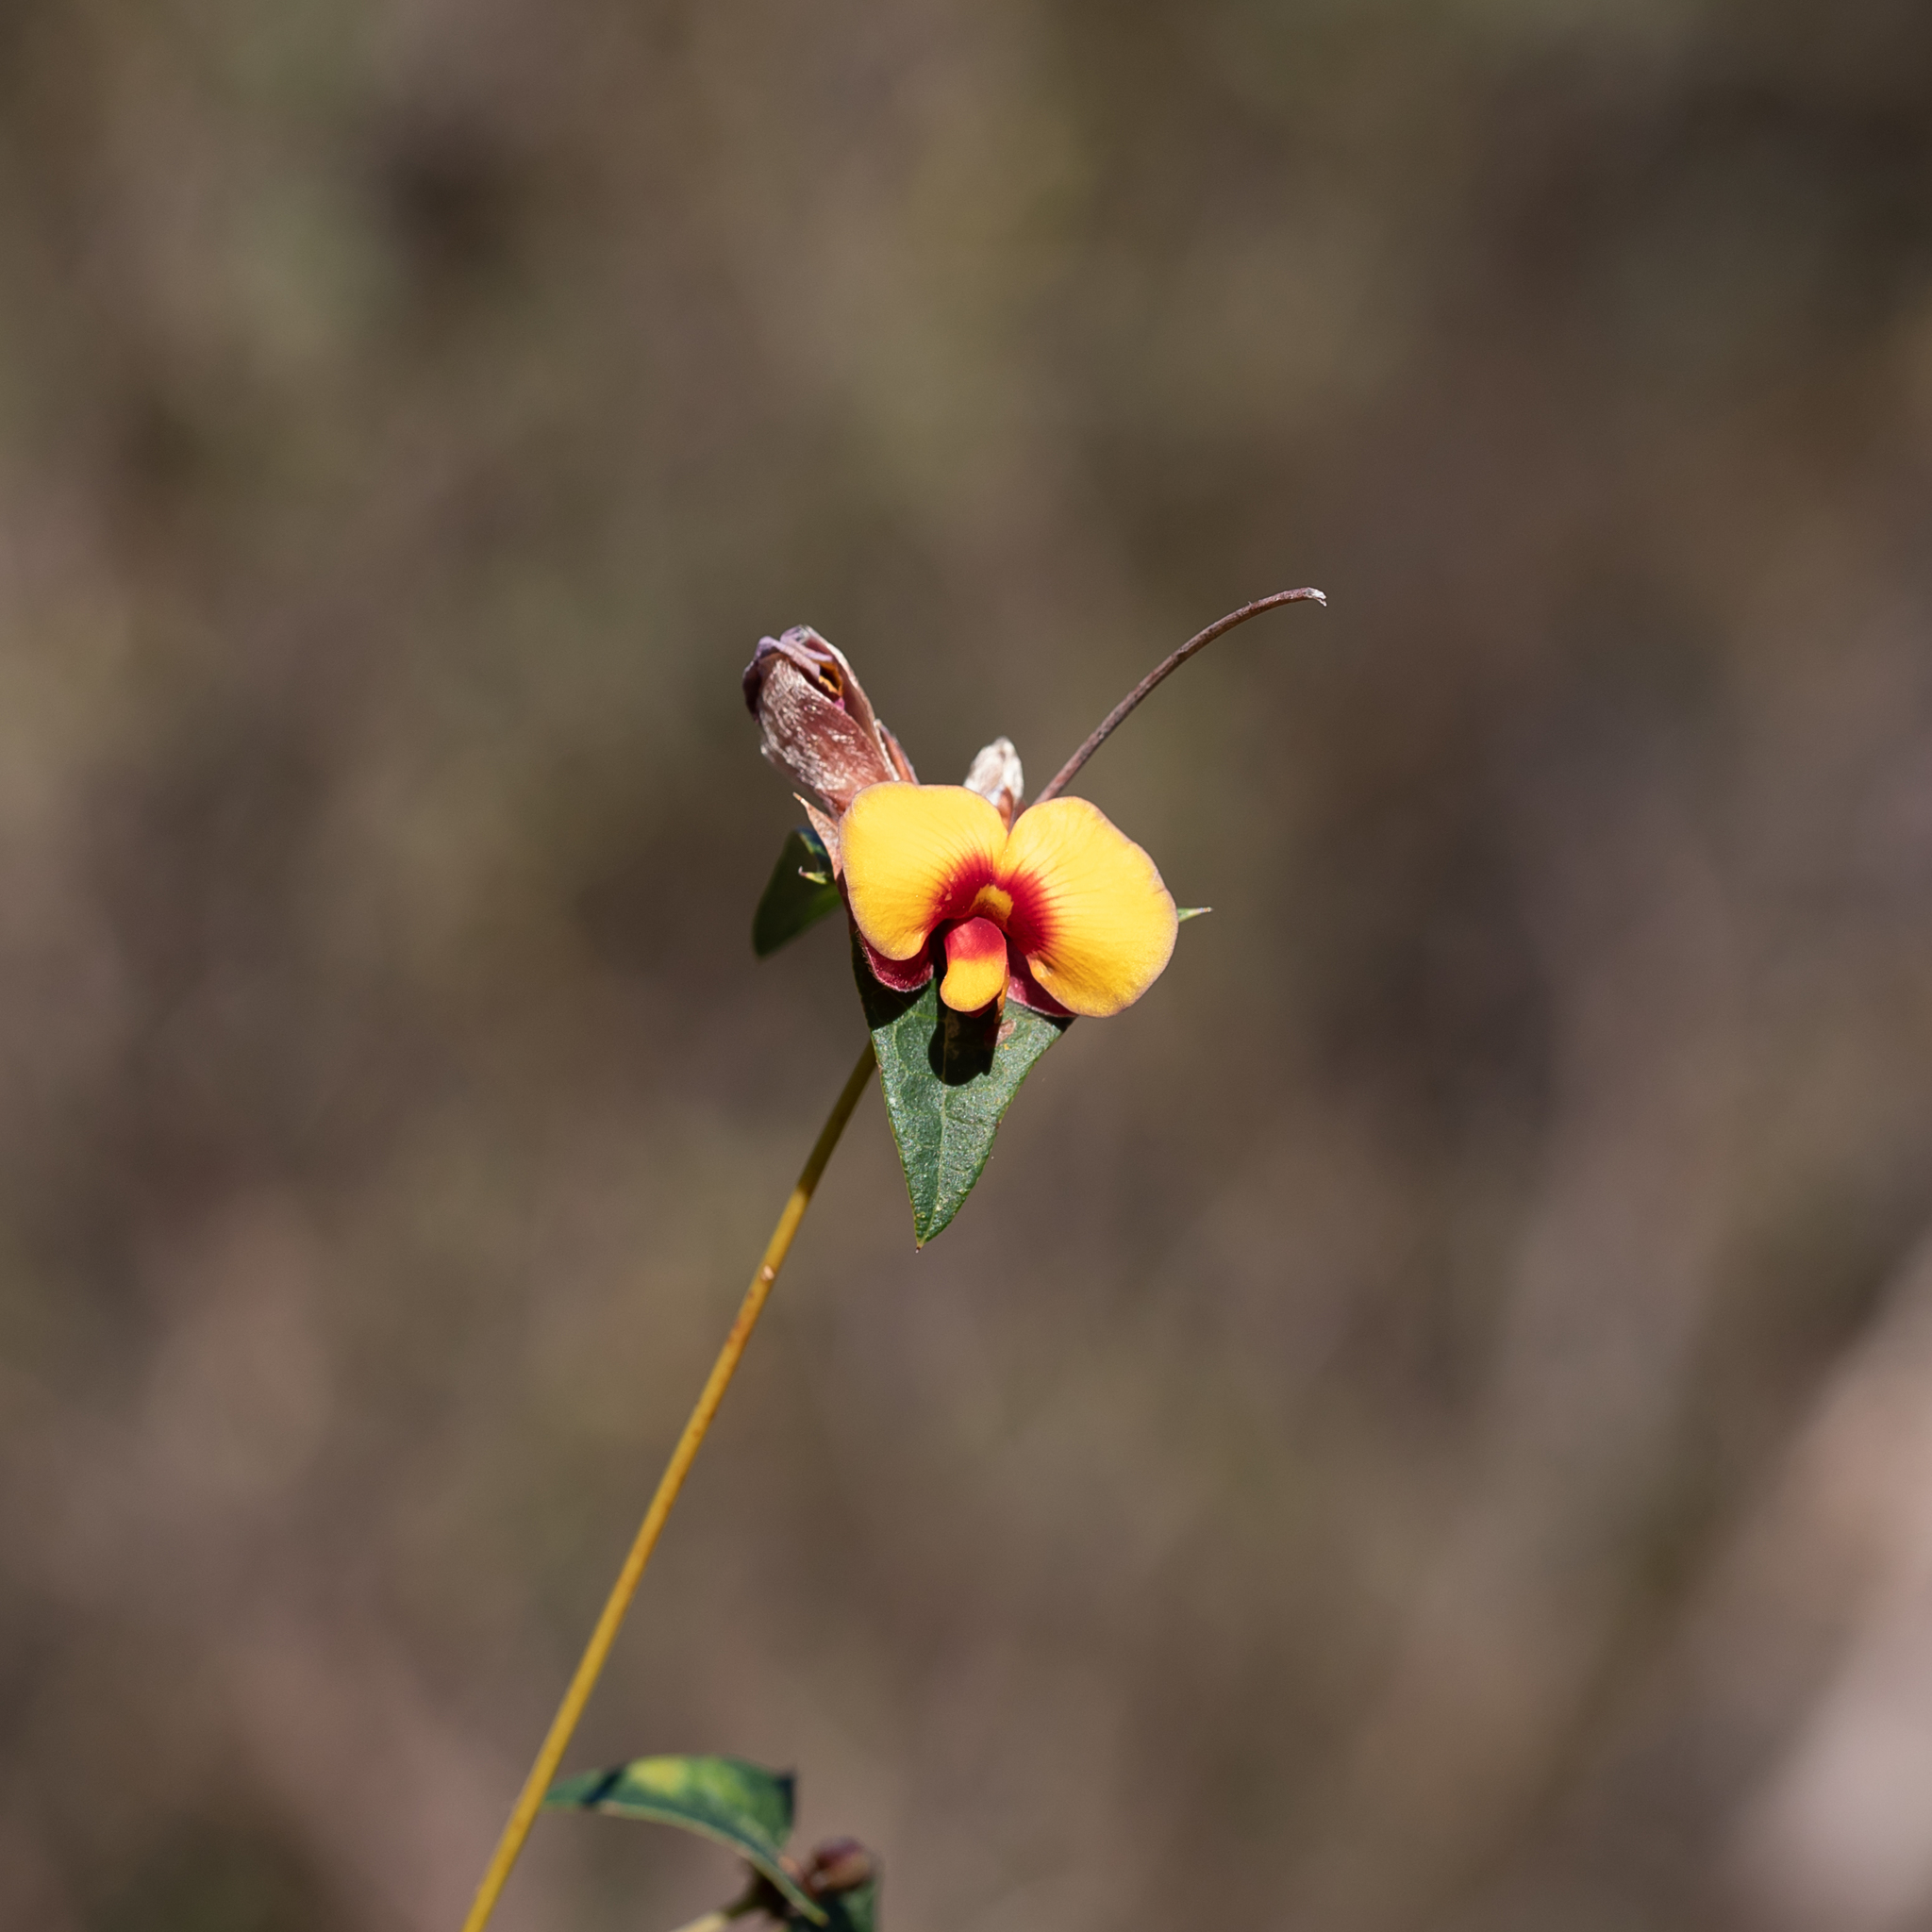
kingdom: Plantae
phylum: Tracheophyta
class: Magnoliopsida
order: Fabales
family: Fabaceae
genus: Platylobium
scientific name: Platylobium obtusangulum
